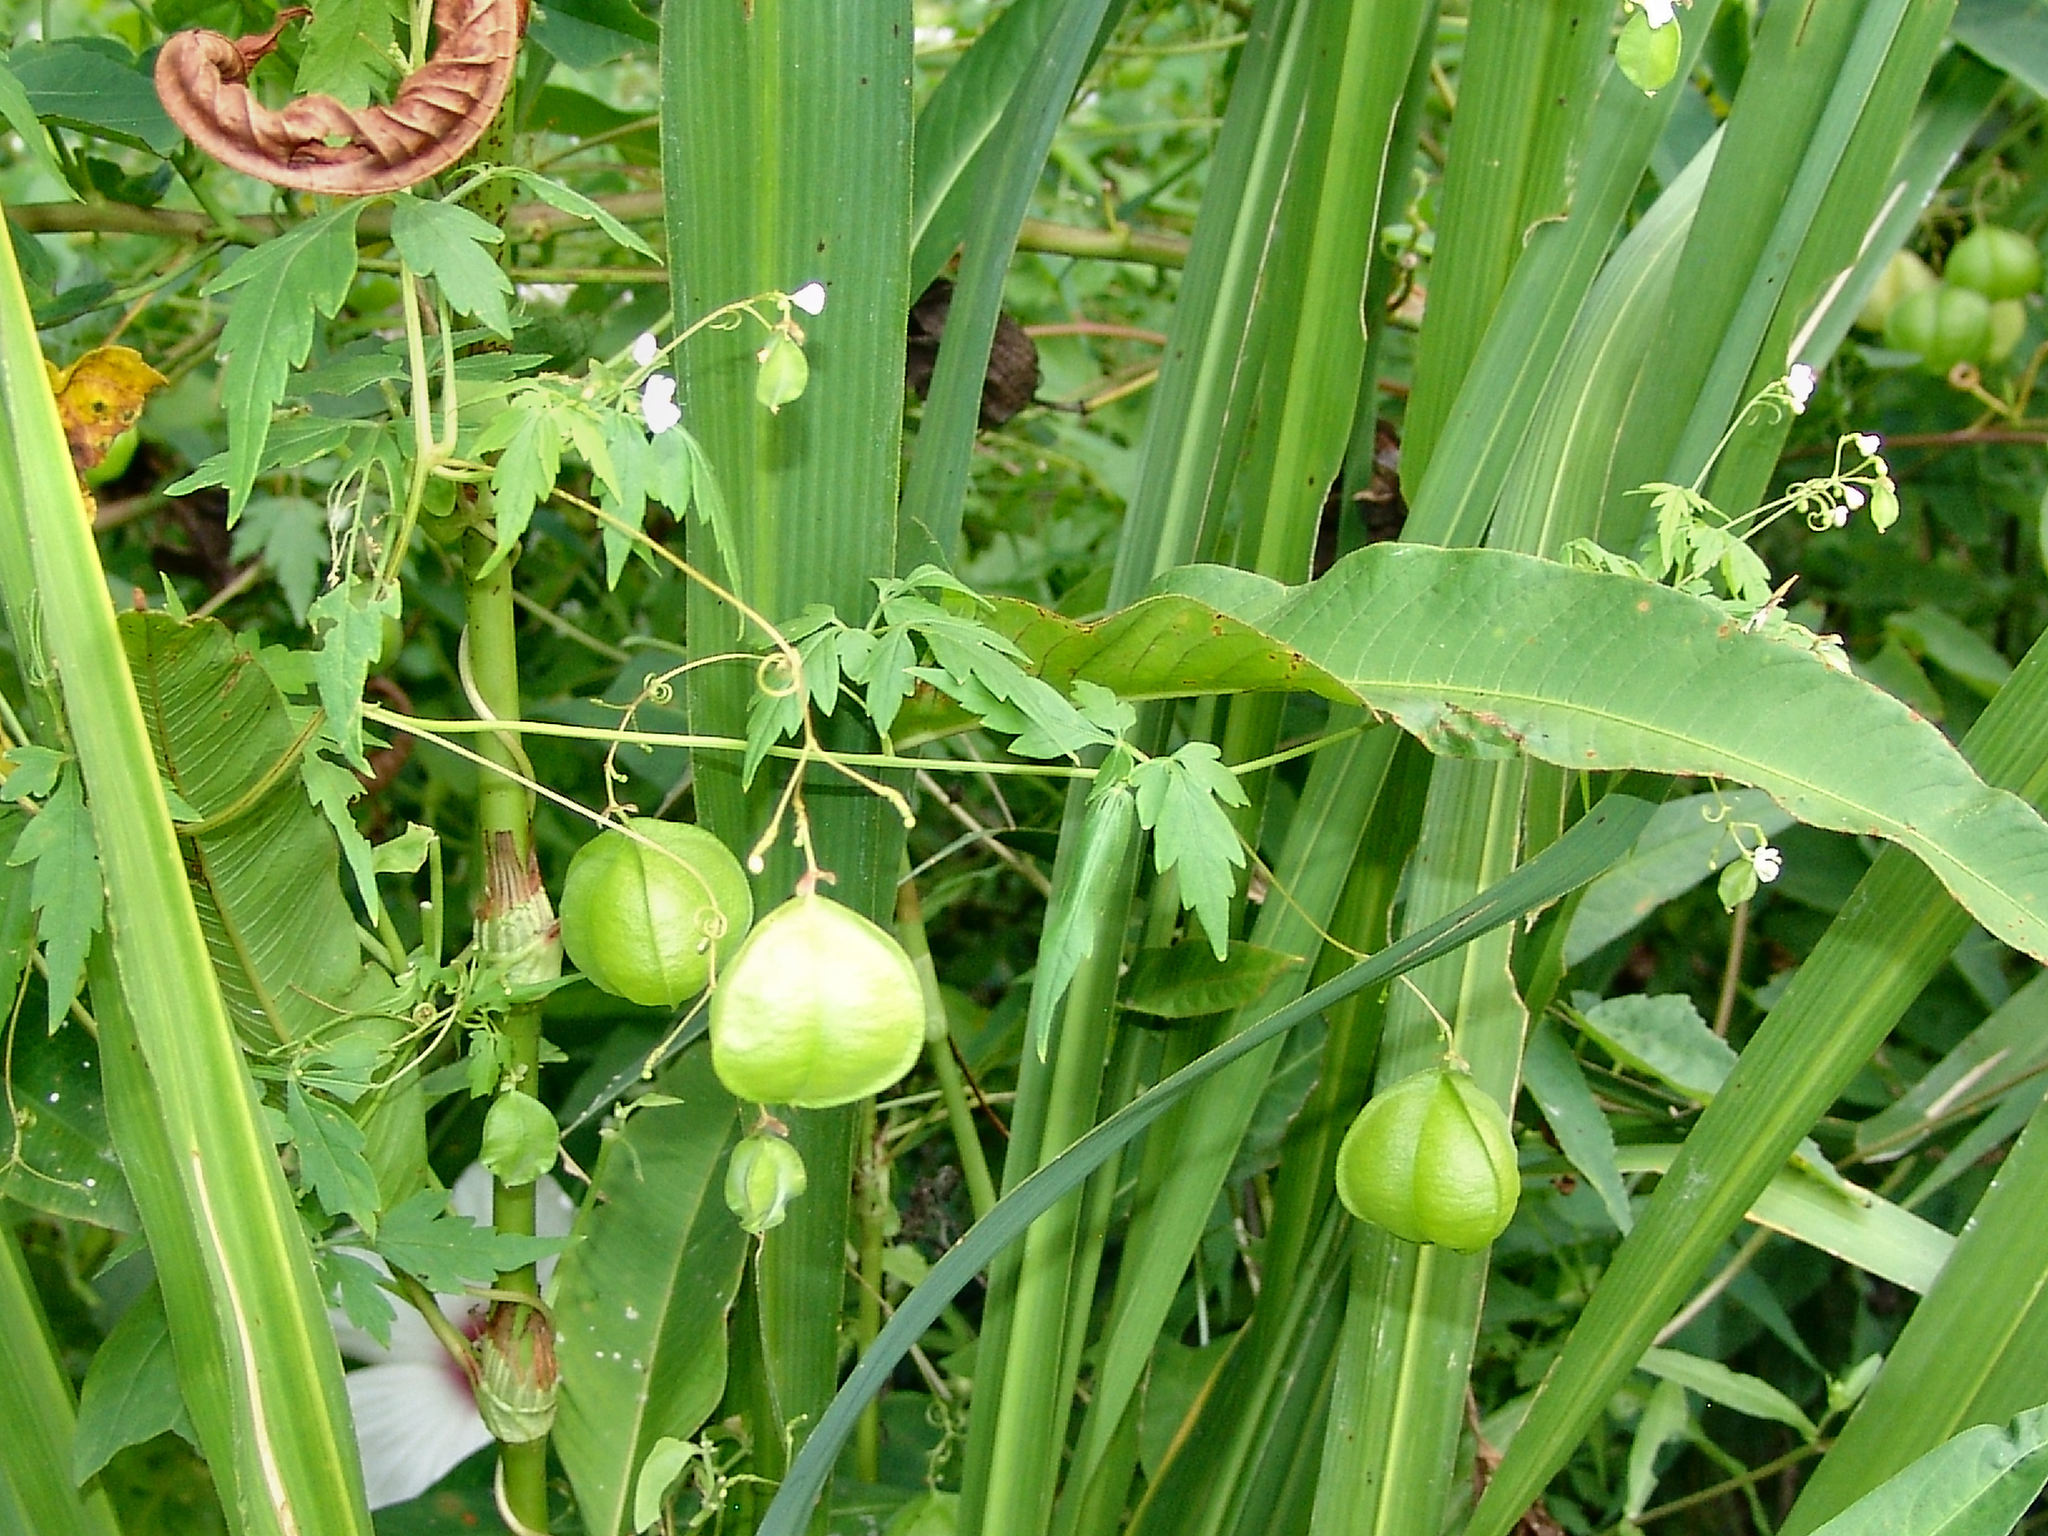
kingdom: Plantae
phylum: Tracheophyta
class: Magnoliopsida
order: Sapindales
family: Sapindaceae
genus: Cardiospermum
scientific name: Cardiospermum halicacabum
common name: Balloon vine
